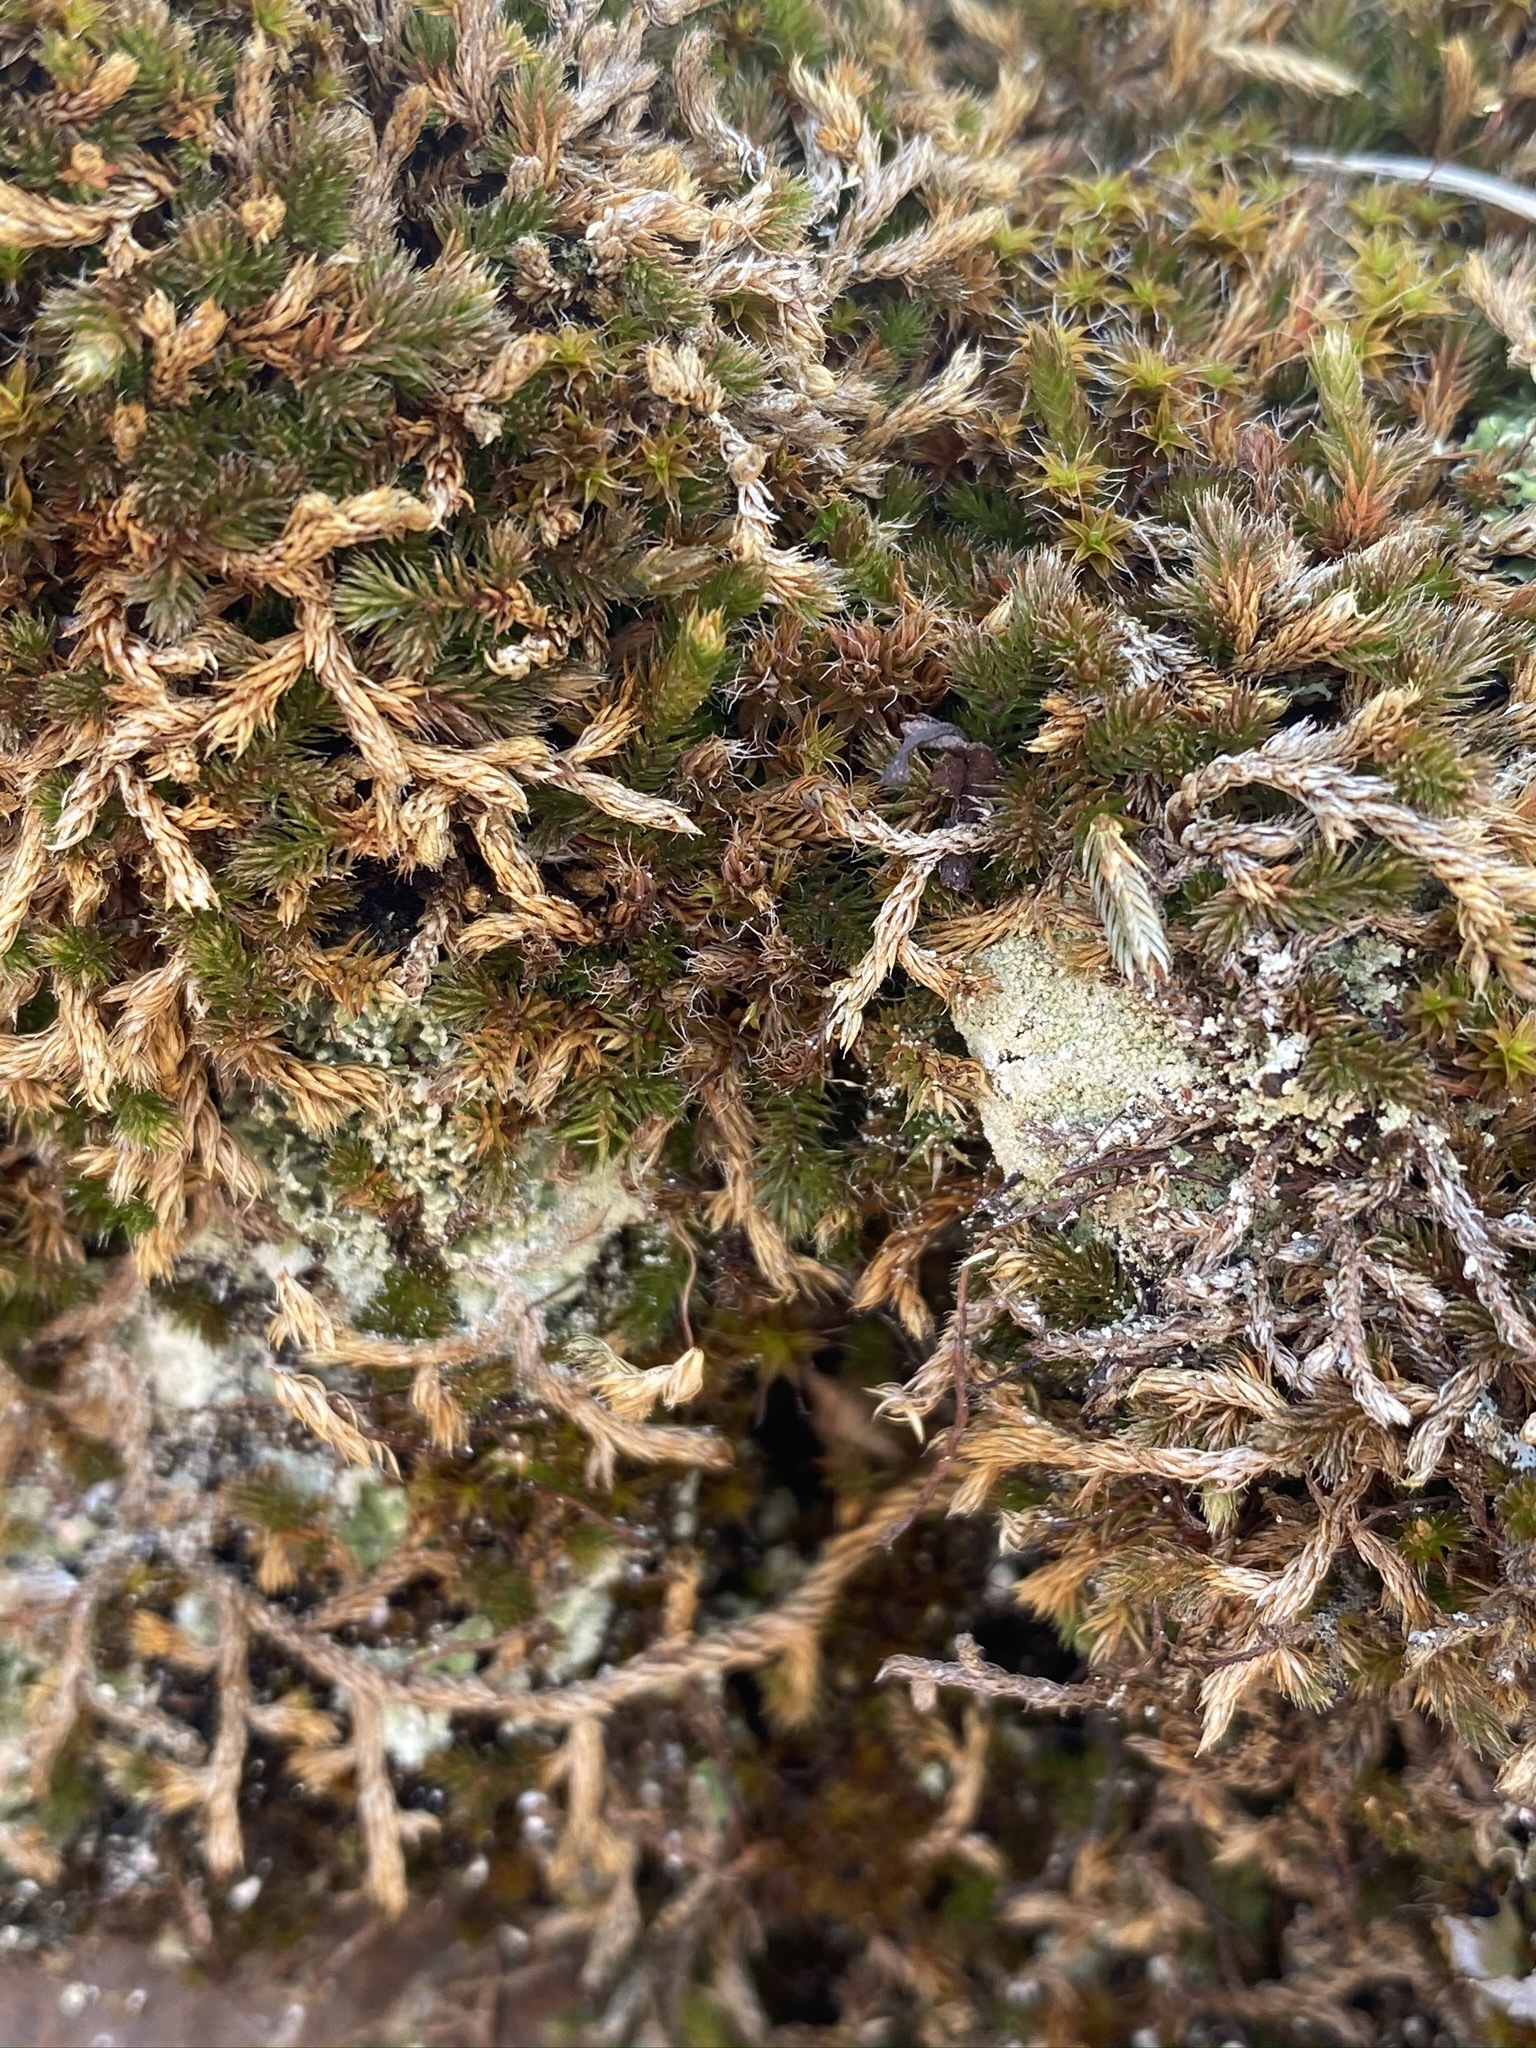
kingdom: Plantae
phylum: Tracheophyta
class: Lycopodiopsida
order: Selaginellales
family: Selaginellaceae
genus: Selaginella
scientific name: Selaginella densa
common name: Mountain spike-moss
